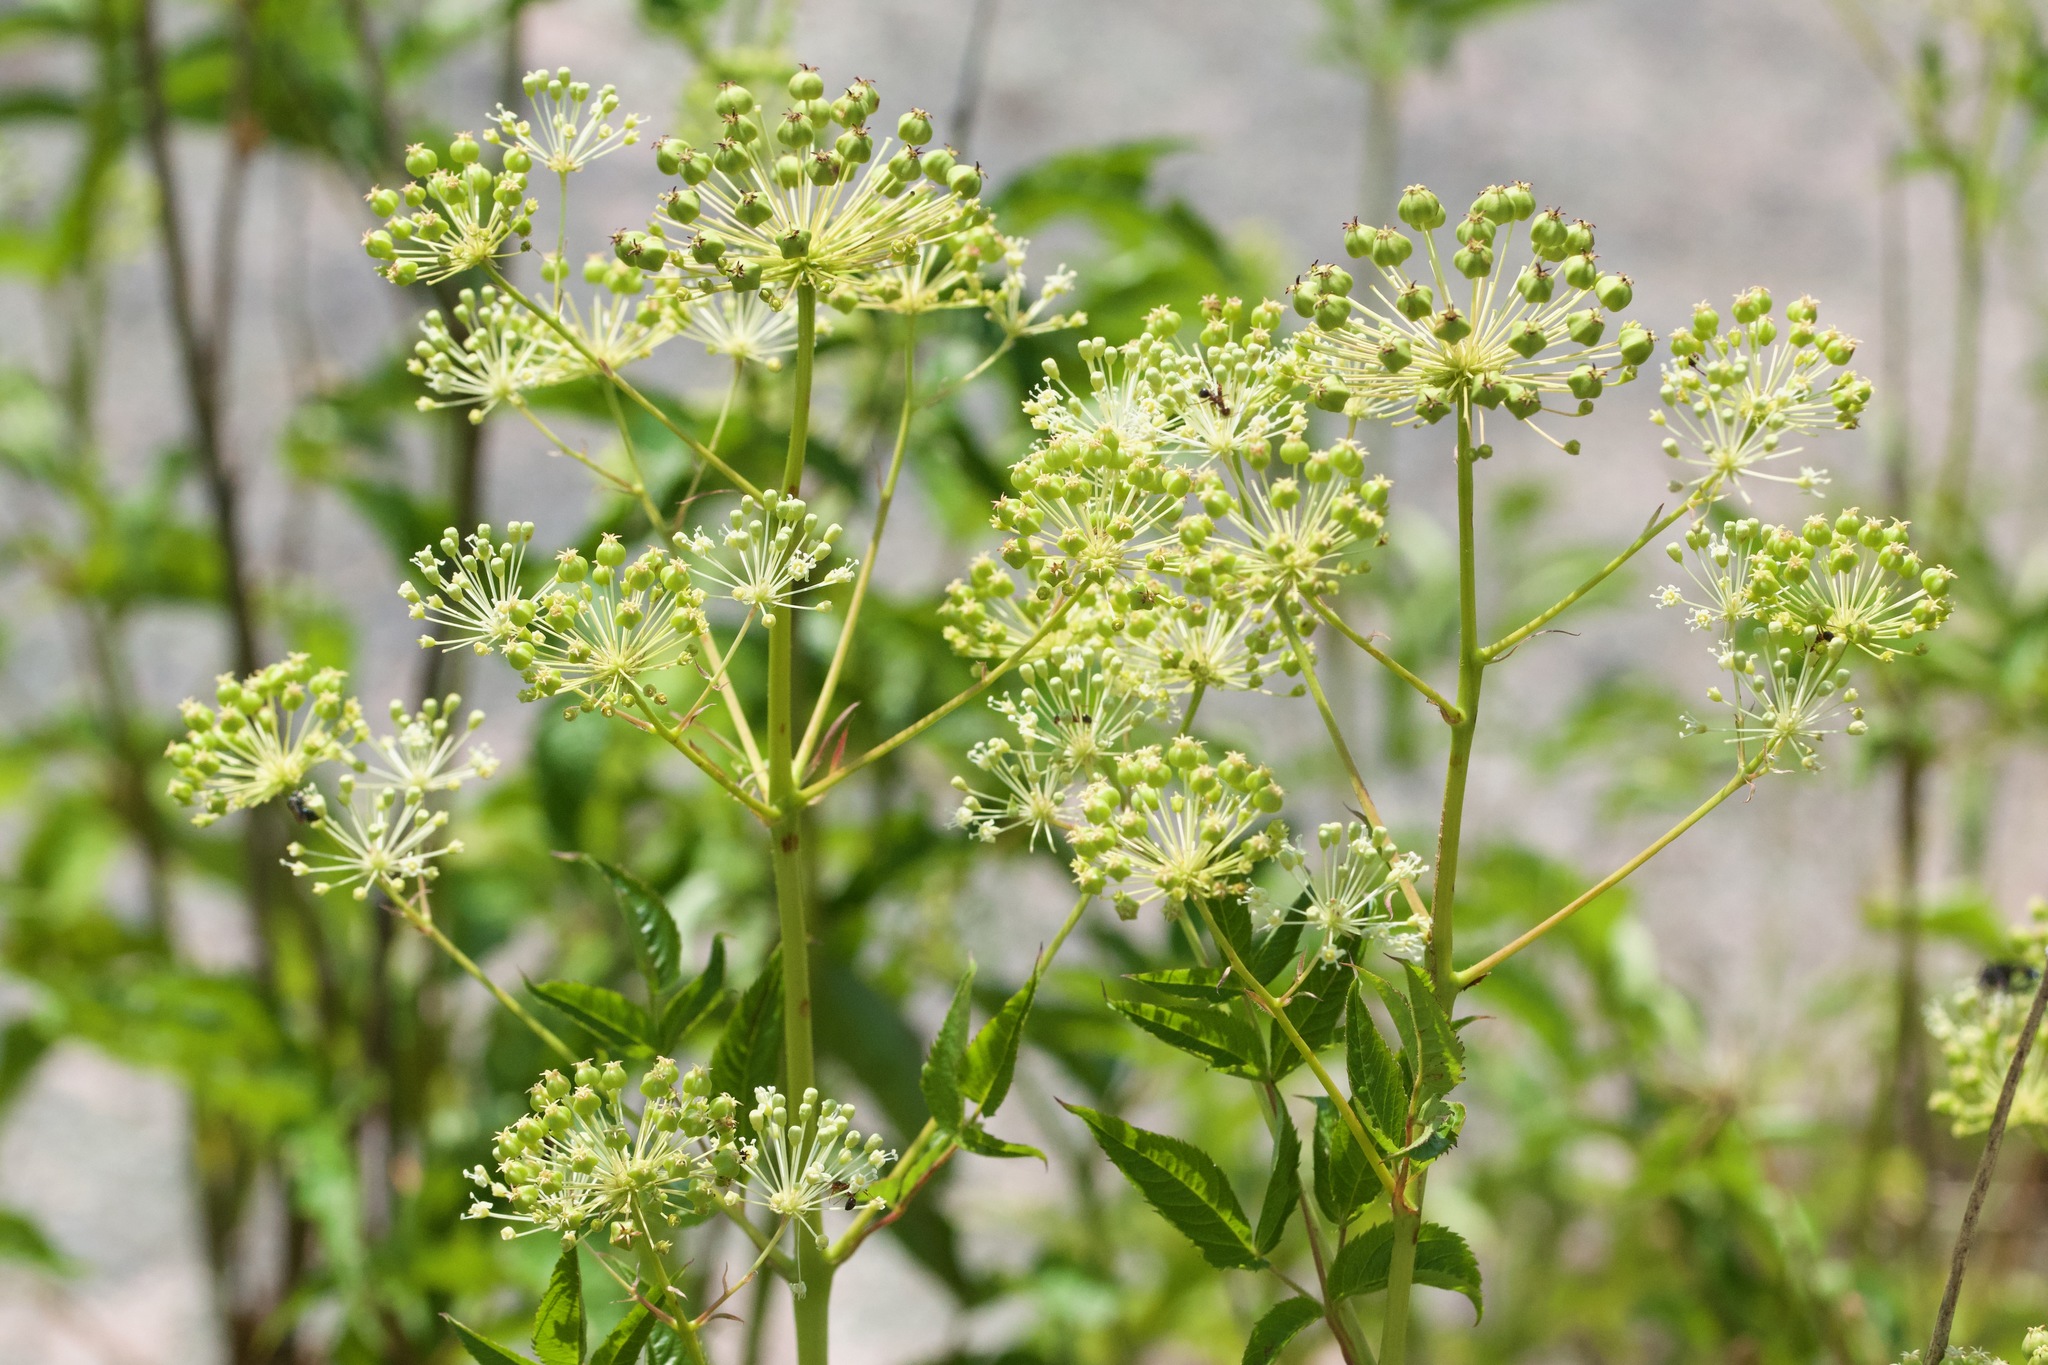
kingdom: Plantae
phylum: Tracheophyta
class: Magnoliopsida
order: Apiales
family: Araliaceae
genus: Aralia
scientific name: Aralia hispida
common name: Bristly sarsaparilla
